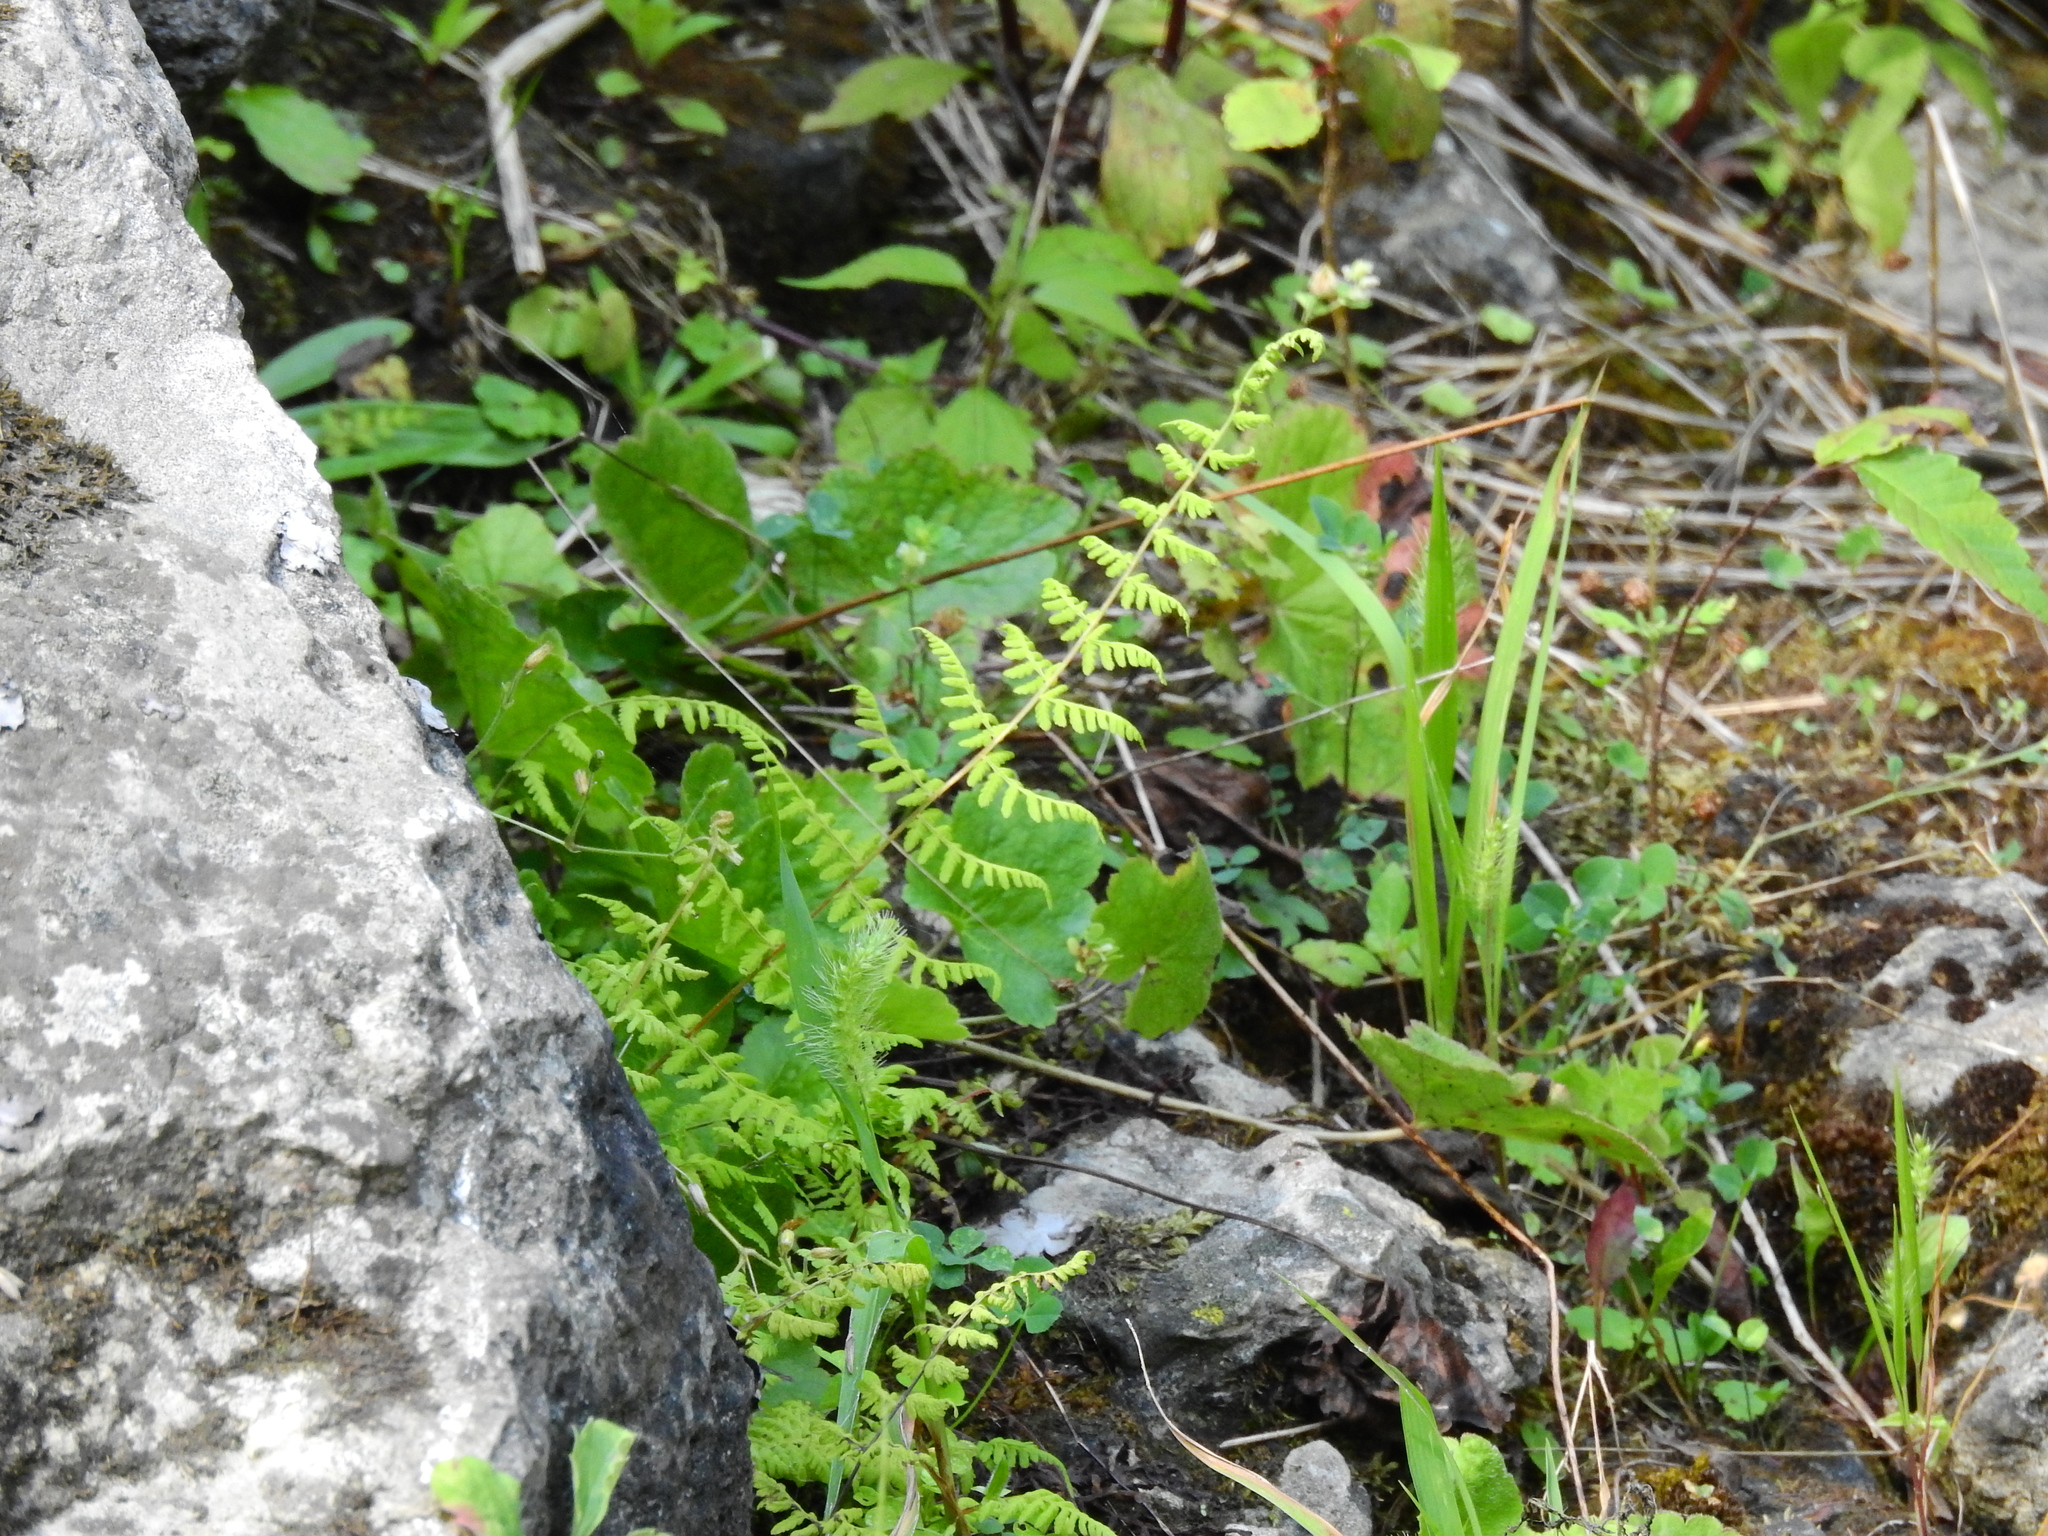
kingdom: Plantae
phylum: Tracheophyta
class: Polypodiopsida
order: Polypodiales
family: Cystopteridaceae
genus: Cystopteris
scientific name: Cystopteris bulbifera
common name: Bulblet bladder fern
